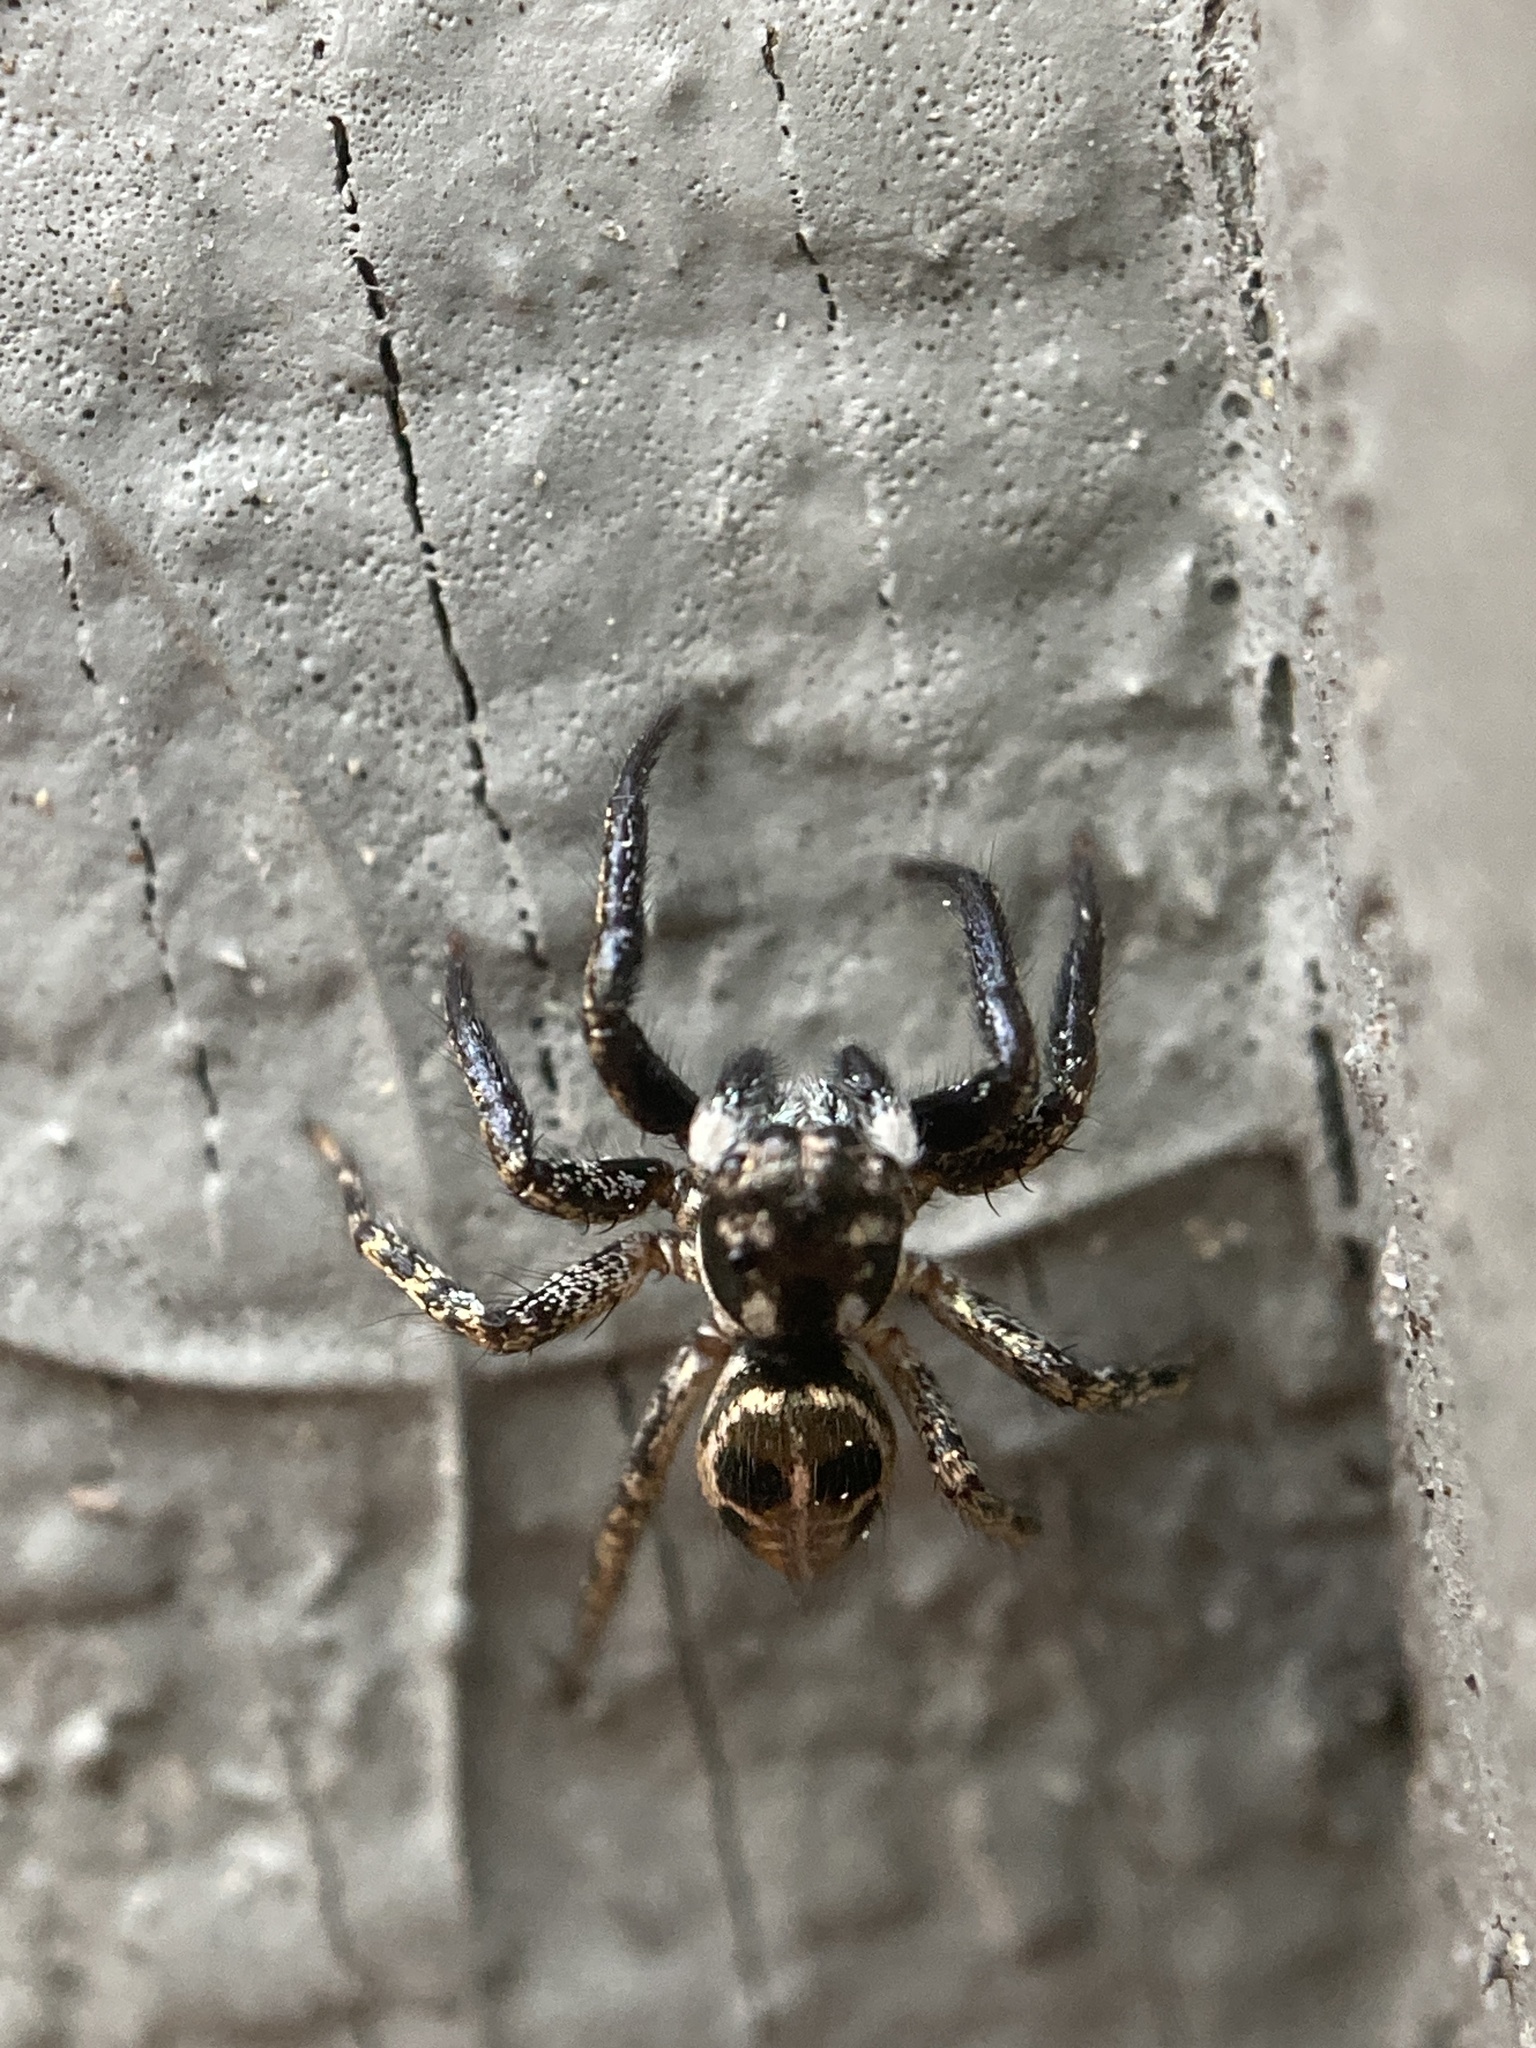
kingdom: Animalia
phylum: Arthropoda
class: Arachnida
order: Araneae
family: Salticidae
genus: Anasaitis
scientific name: Anasaitis canosa
